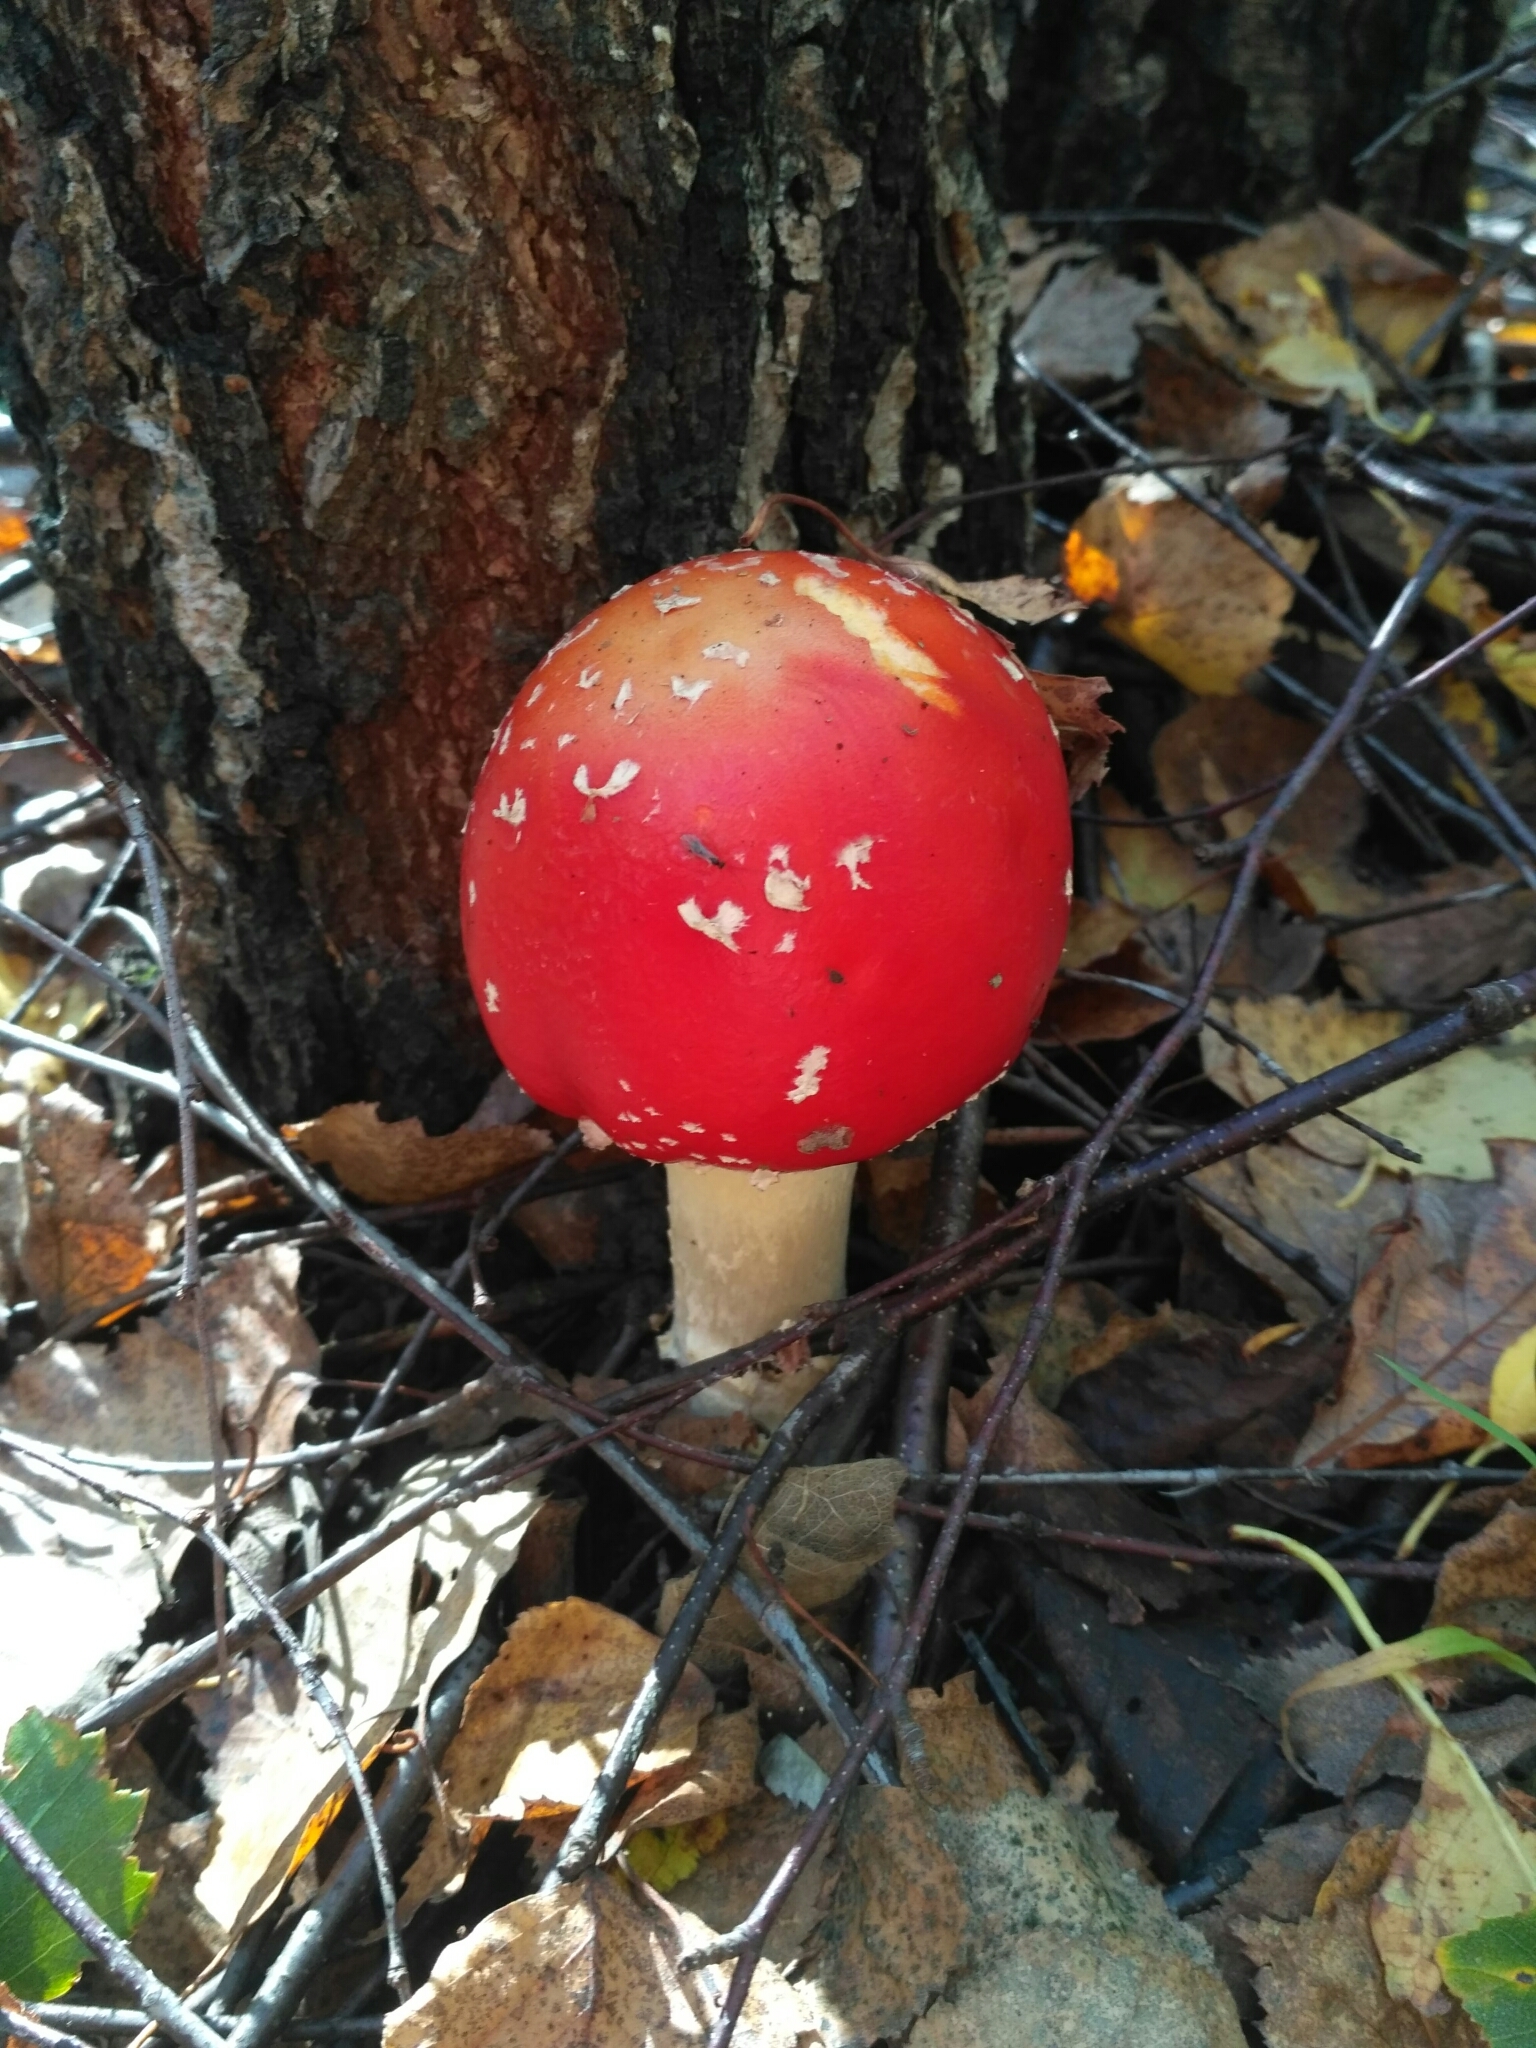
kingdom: Fungi
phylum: Basidiomycota
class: Agaricomycetes
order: Agaricales
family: Amanitaceae
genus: Amanita
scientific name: Amanita muscaria
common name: Fly agaric
